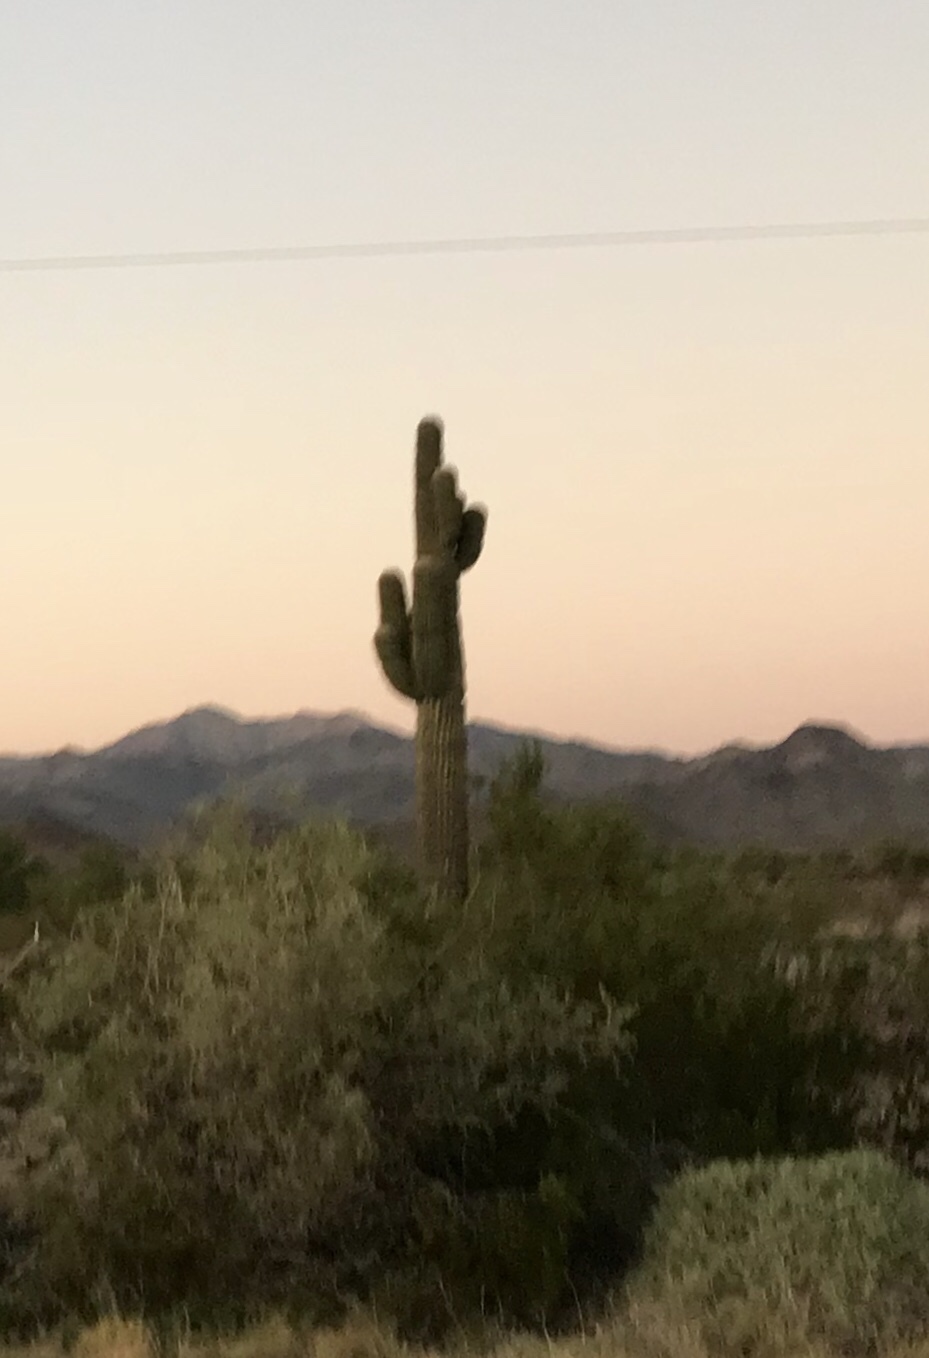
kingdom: Plantae
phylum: Tracheophyta
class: Magnoliopsida
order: Caryophyllales
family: Cactaceae
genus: Carnegiea
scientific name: Carnegiea gigantea
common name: Saguaro
